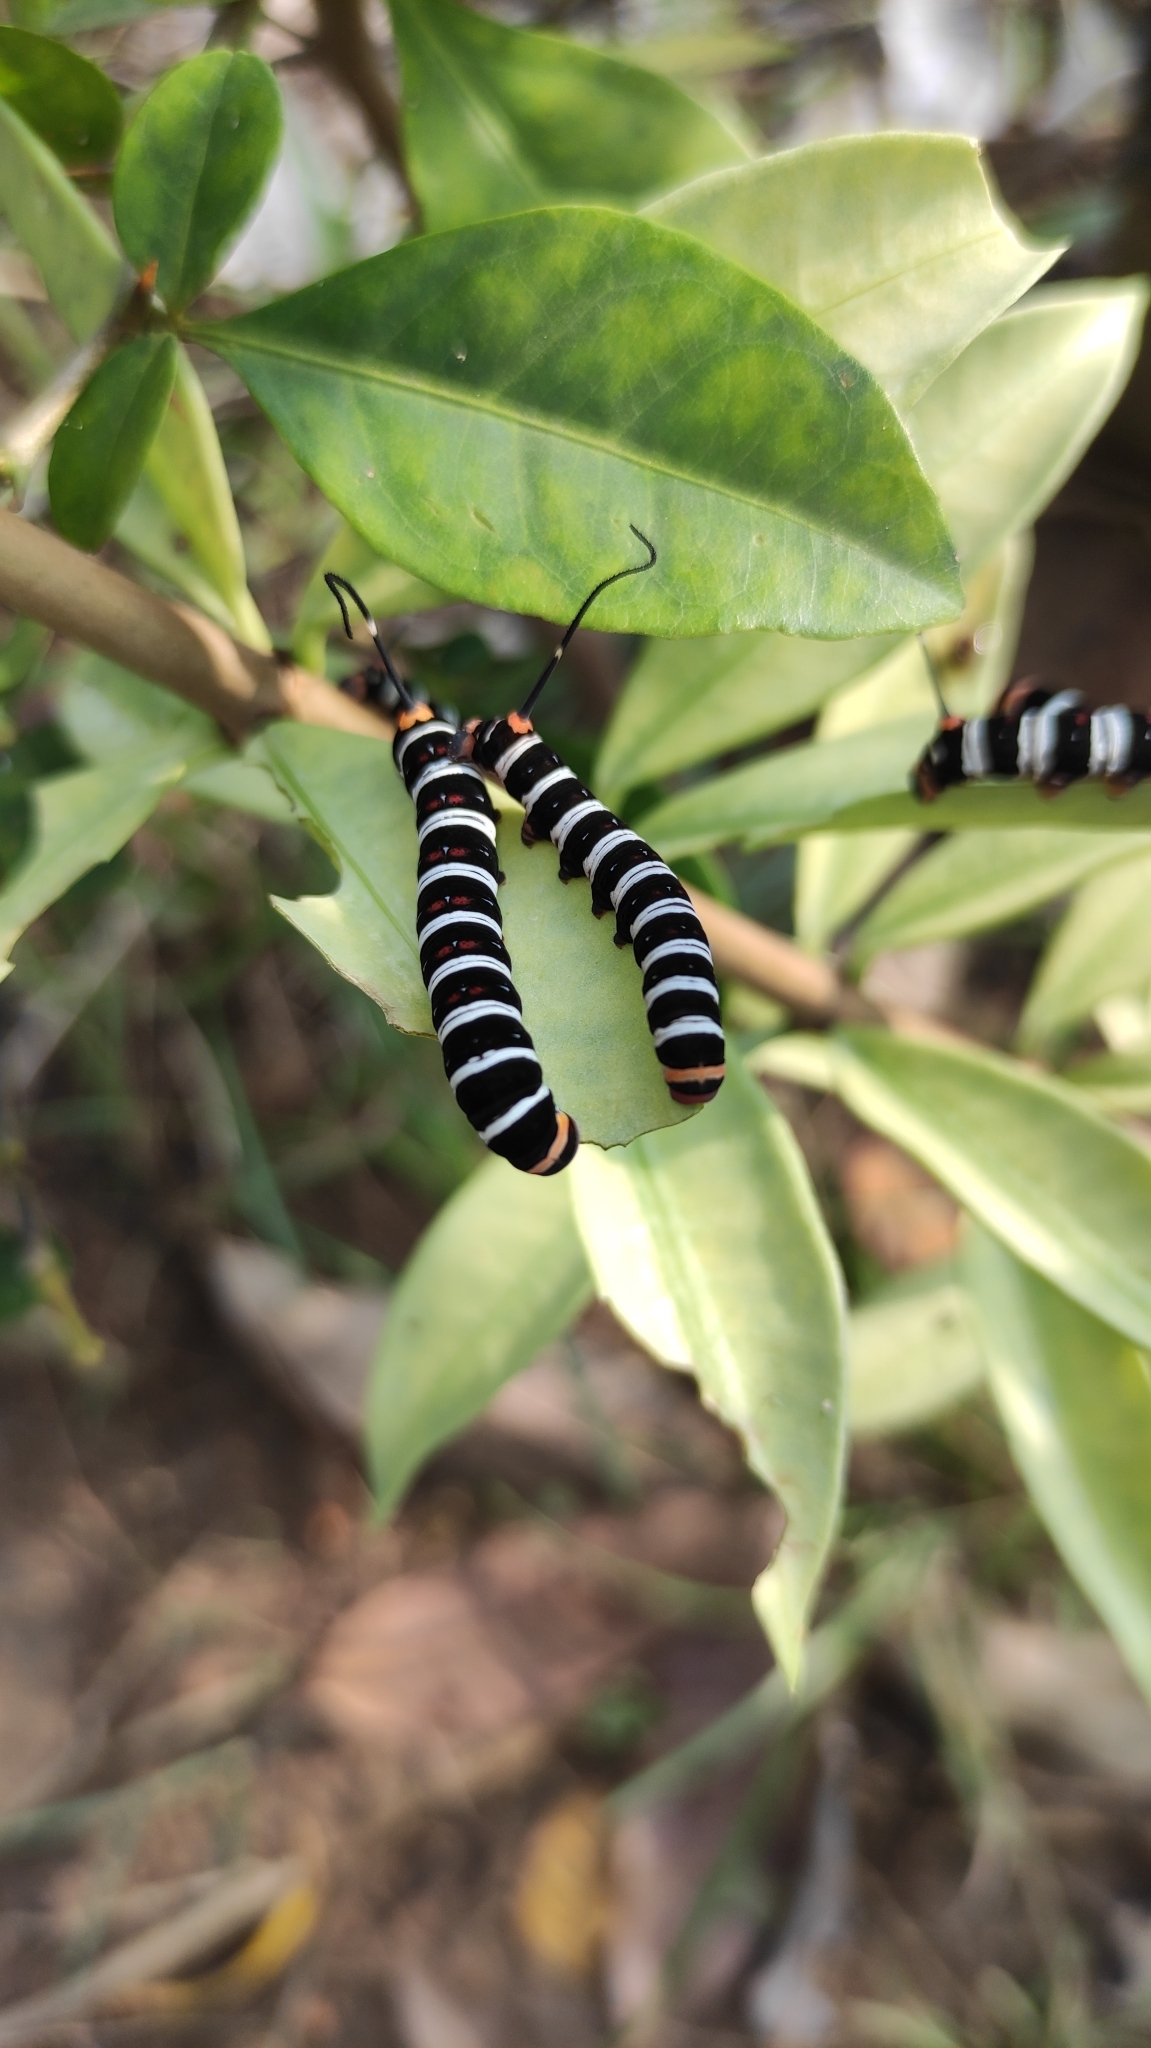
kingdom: Animalia
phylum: Arthropoda
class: Insecta
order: Lepidoptera
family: Sphingidae
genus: Isognathus
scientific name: Isognathus caricae
